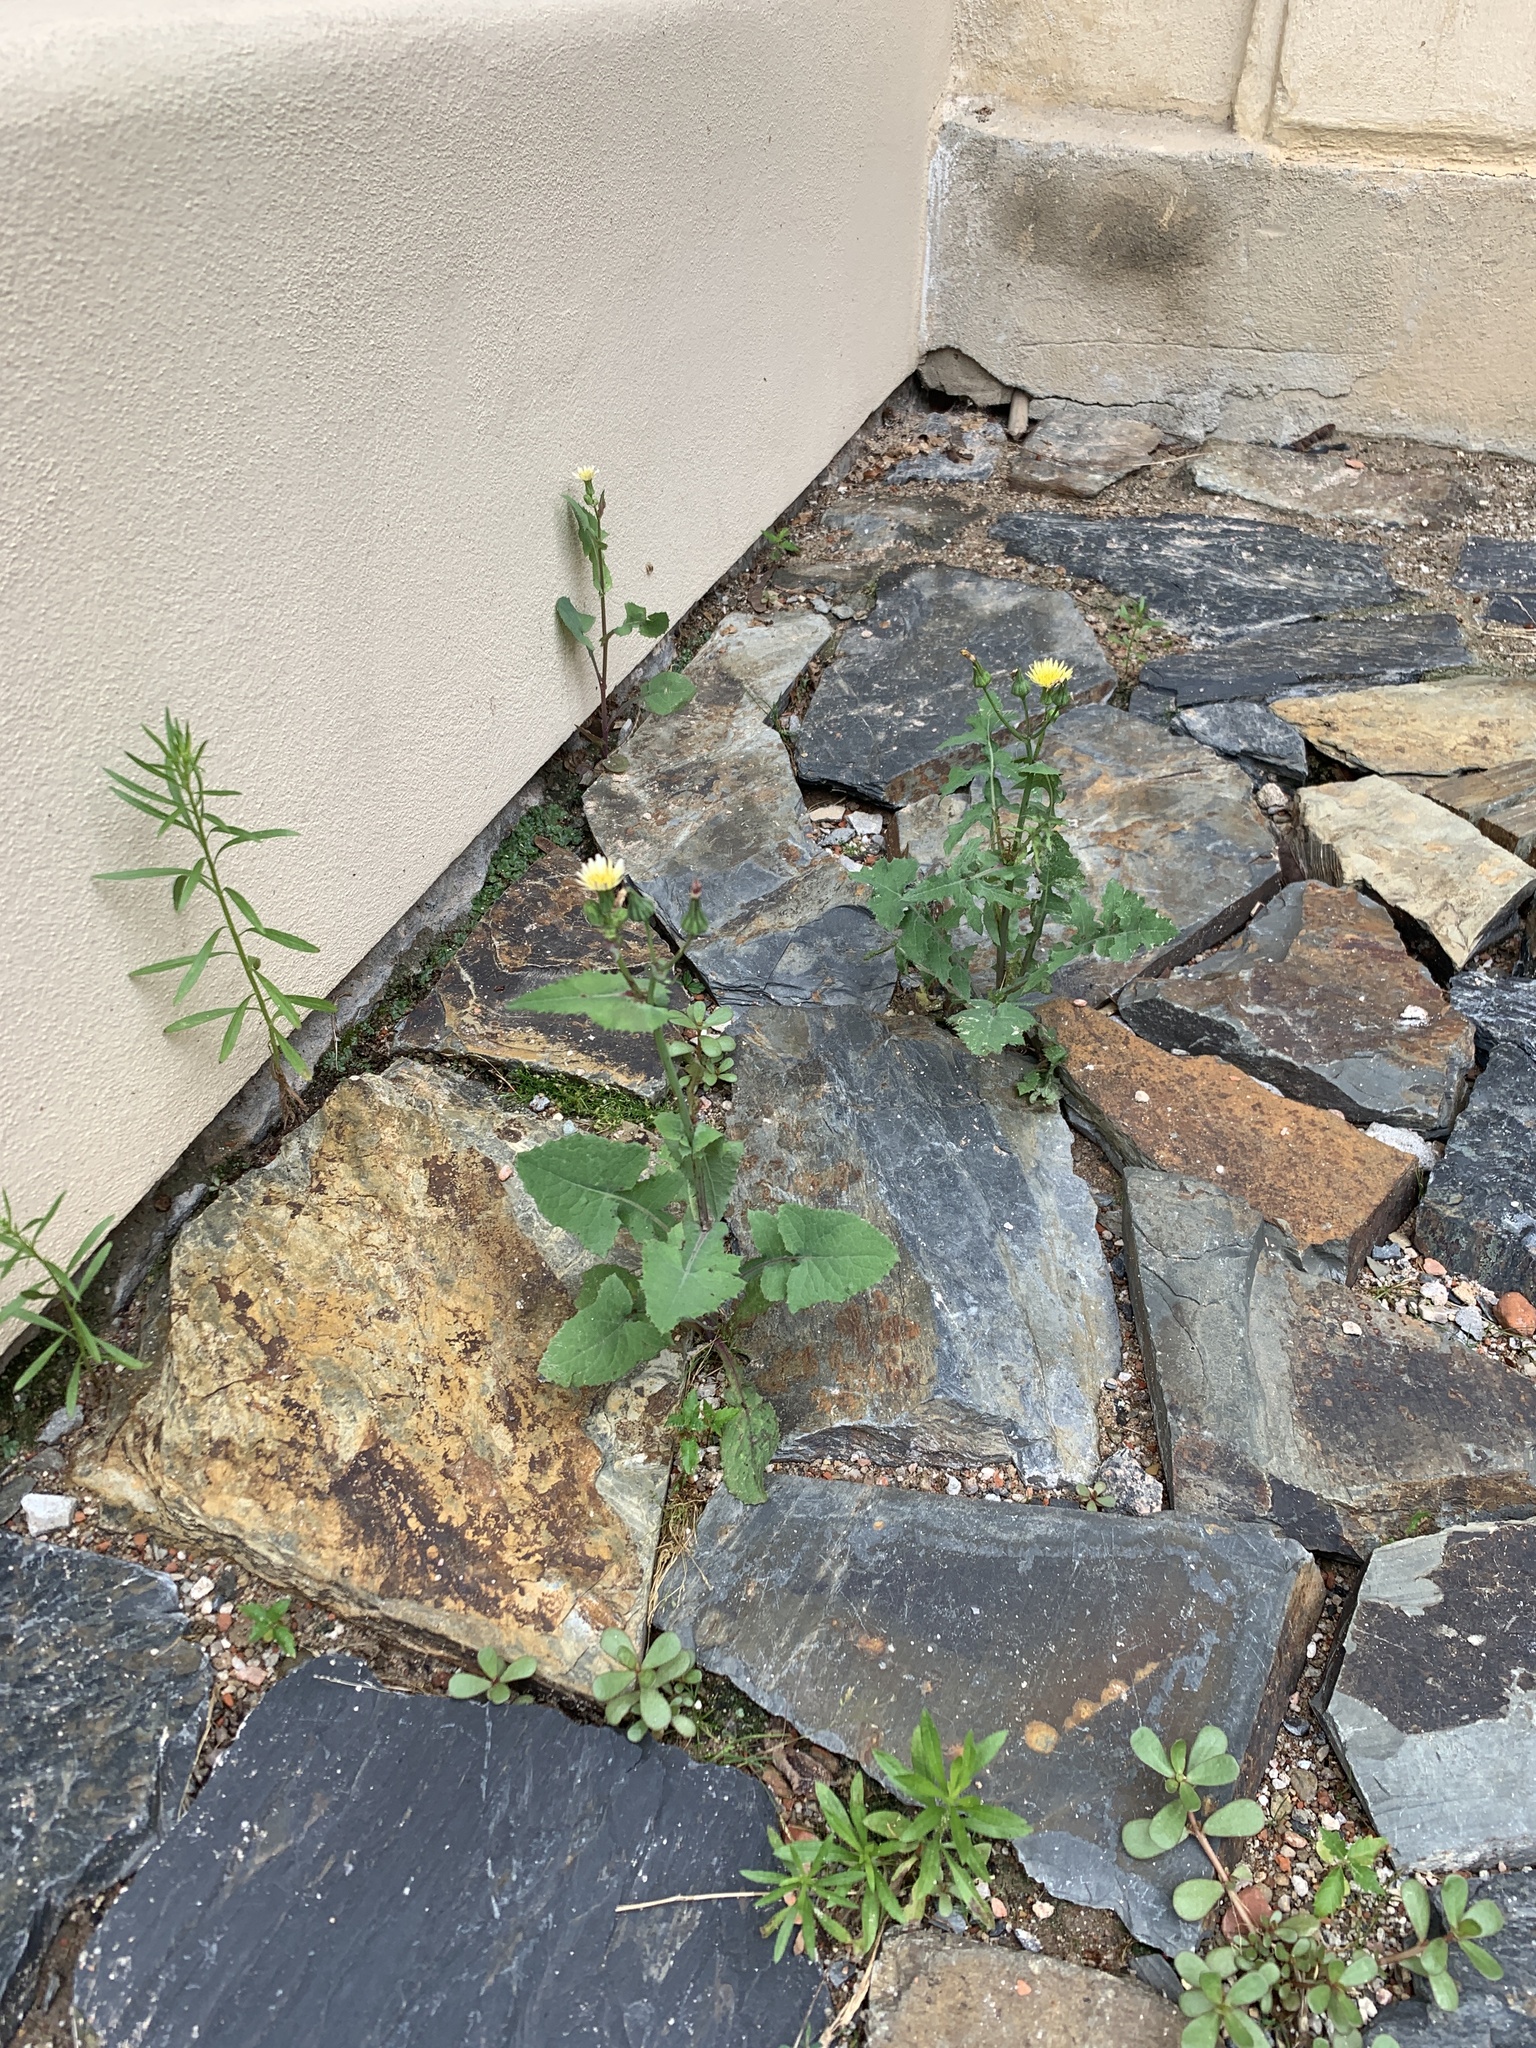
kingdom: Plantae
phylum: Tracheophyta
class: Magnoliopsida
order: Asterales
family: Asteraceae
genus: Sonchus
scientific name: Sonchus oleraceus
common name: Common sowthistle
